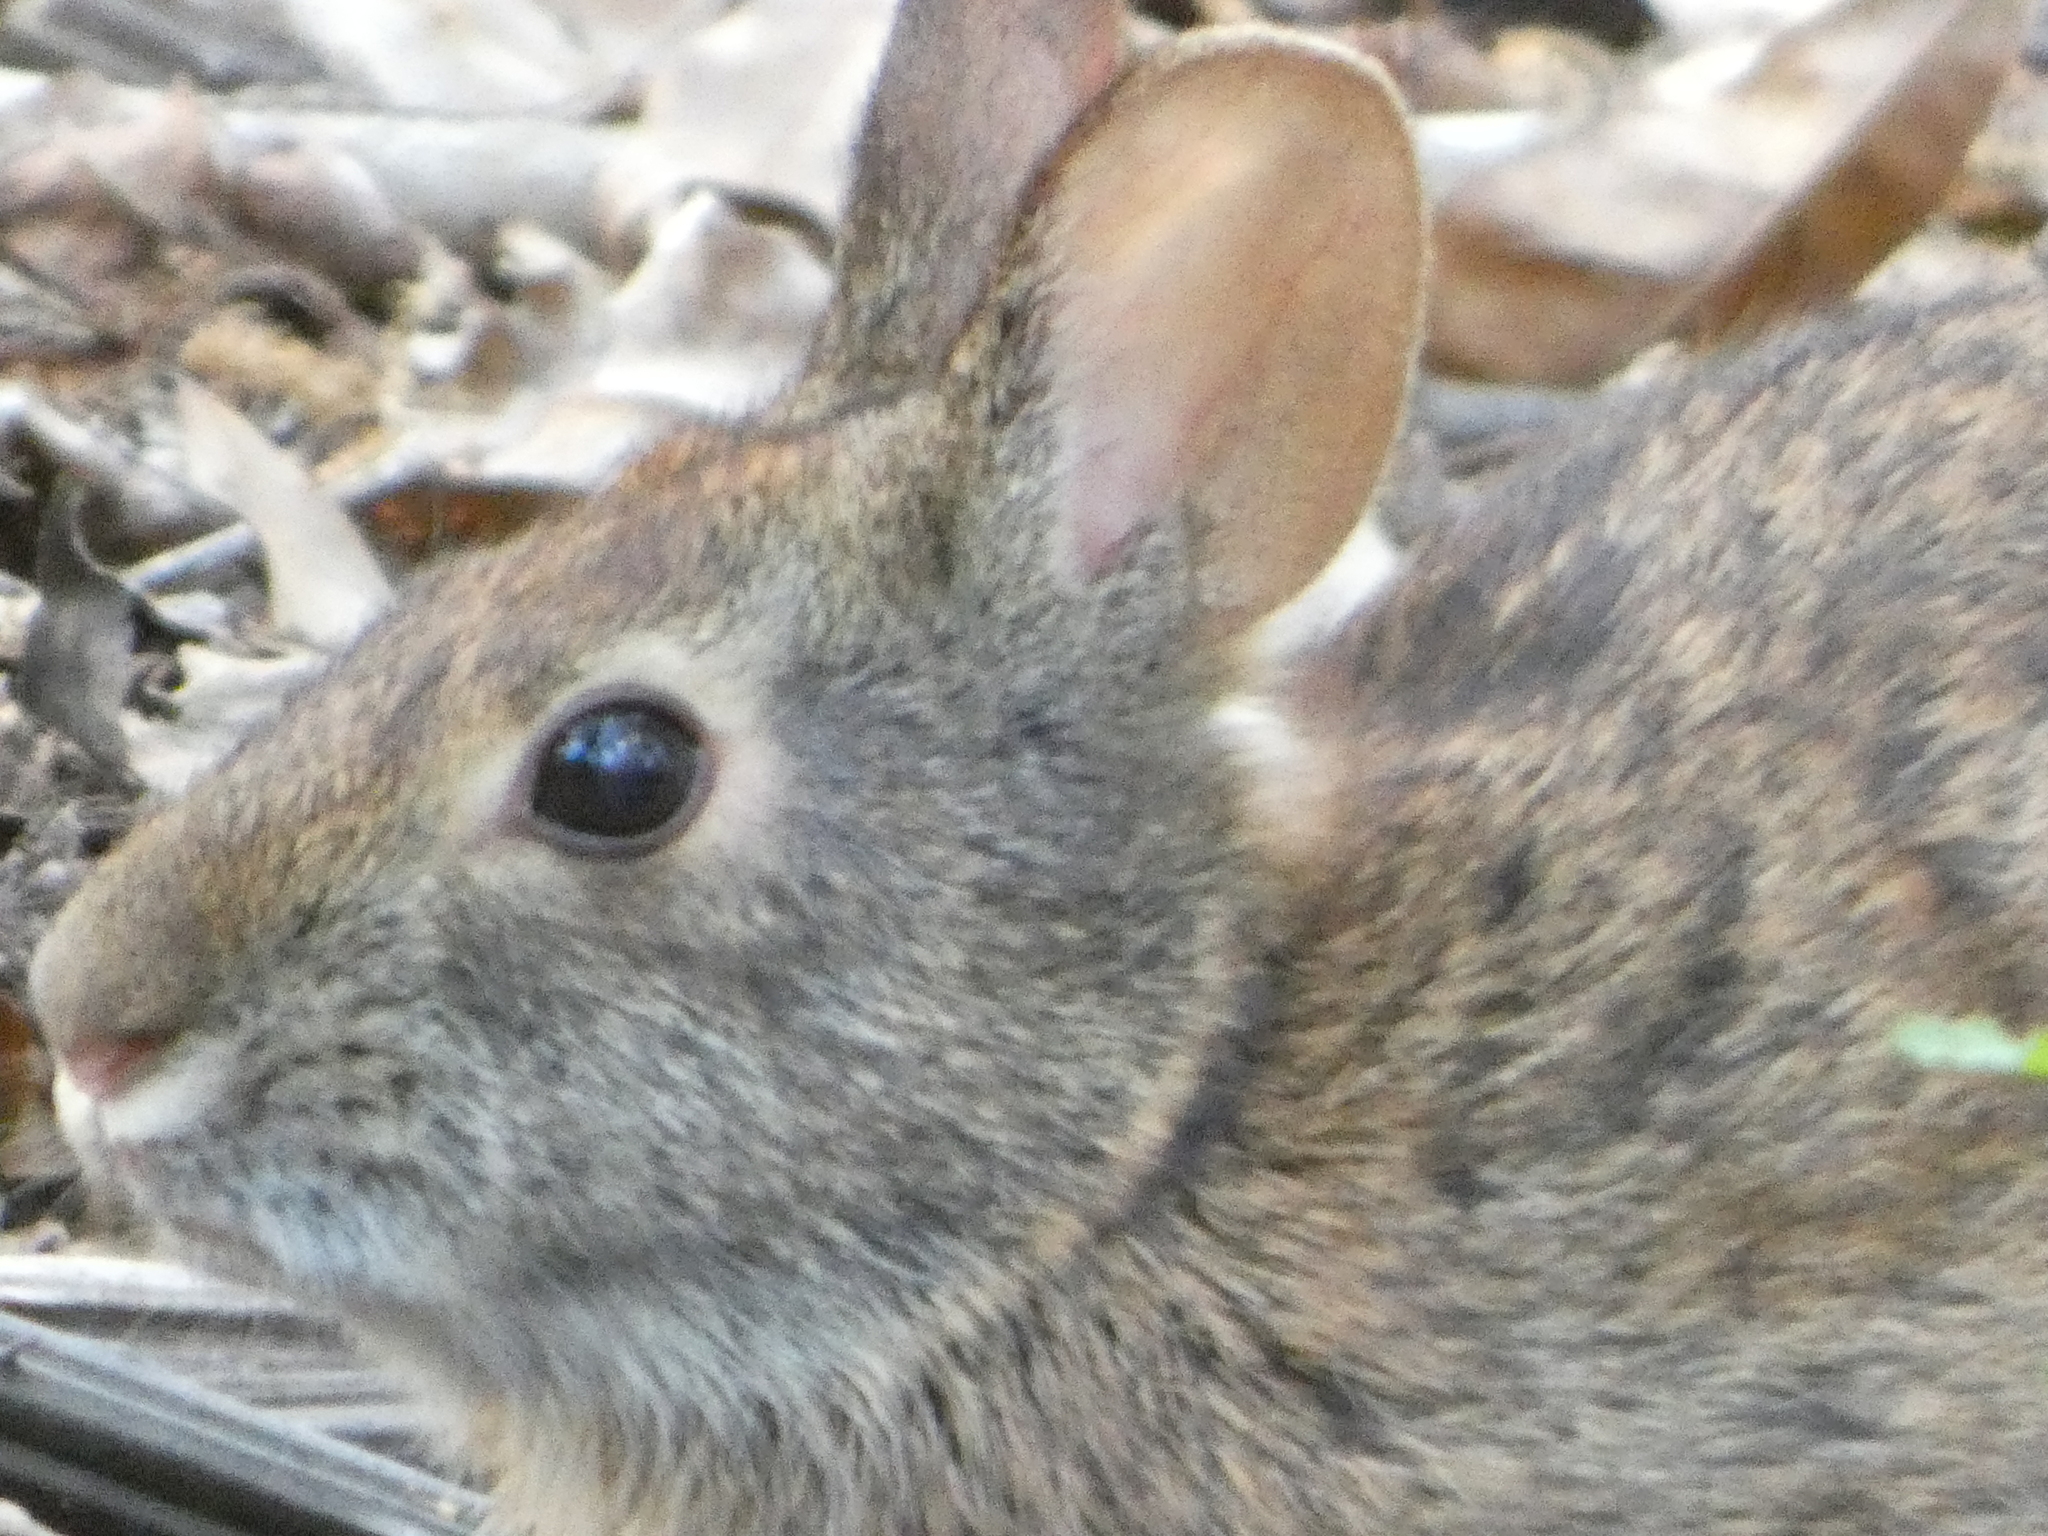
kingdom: Animalia
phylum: Chordata
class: Mammalia
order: Lagomorpha
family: Leporidae
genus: Sylvilagus
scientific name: Sylvilagus palustris
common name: Marsh rabbit
